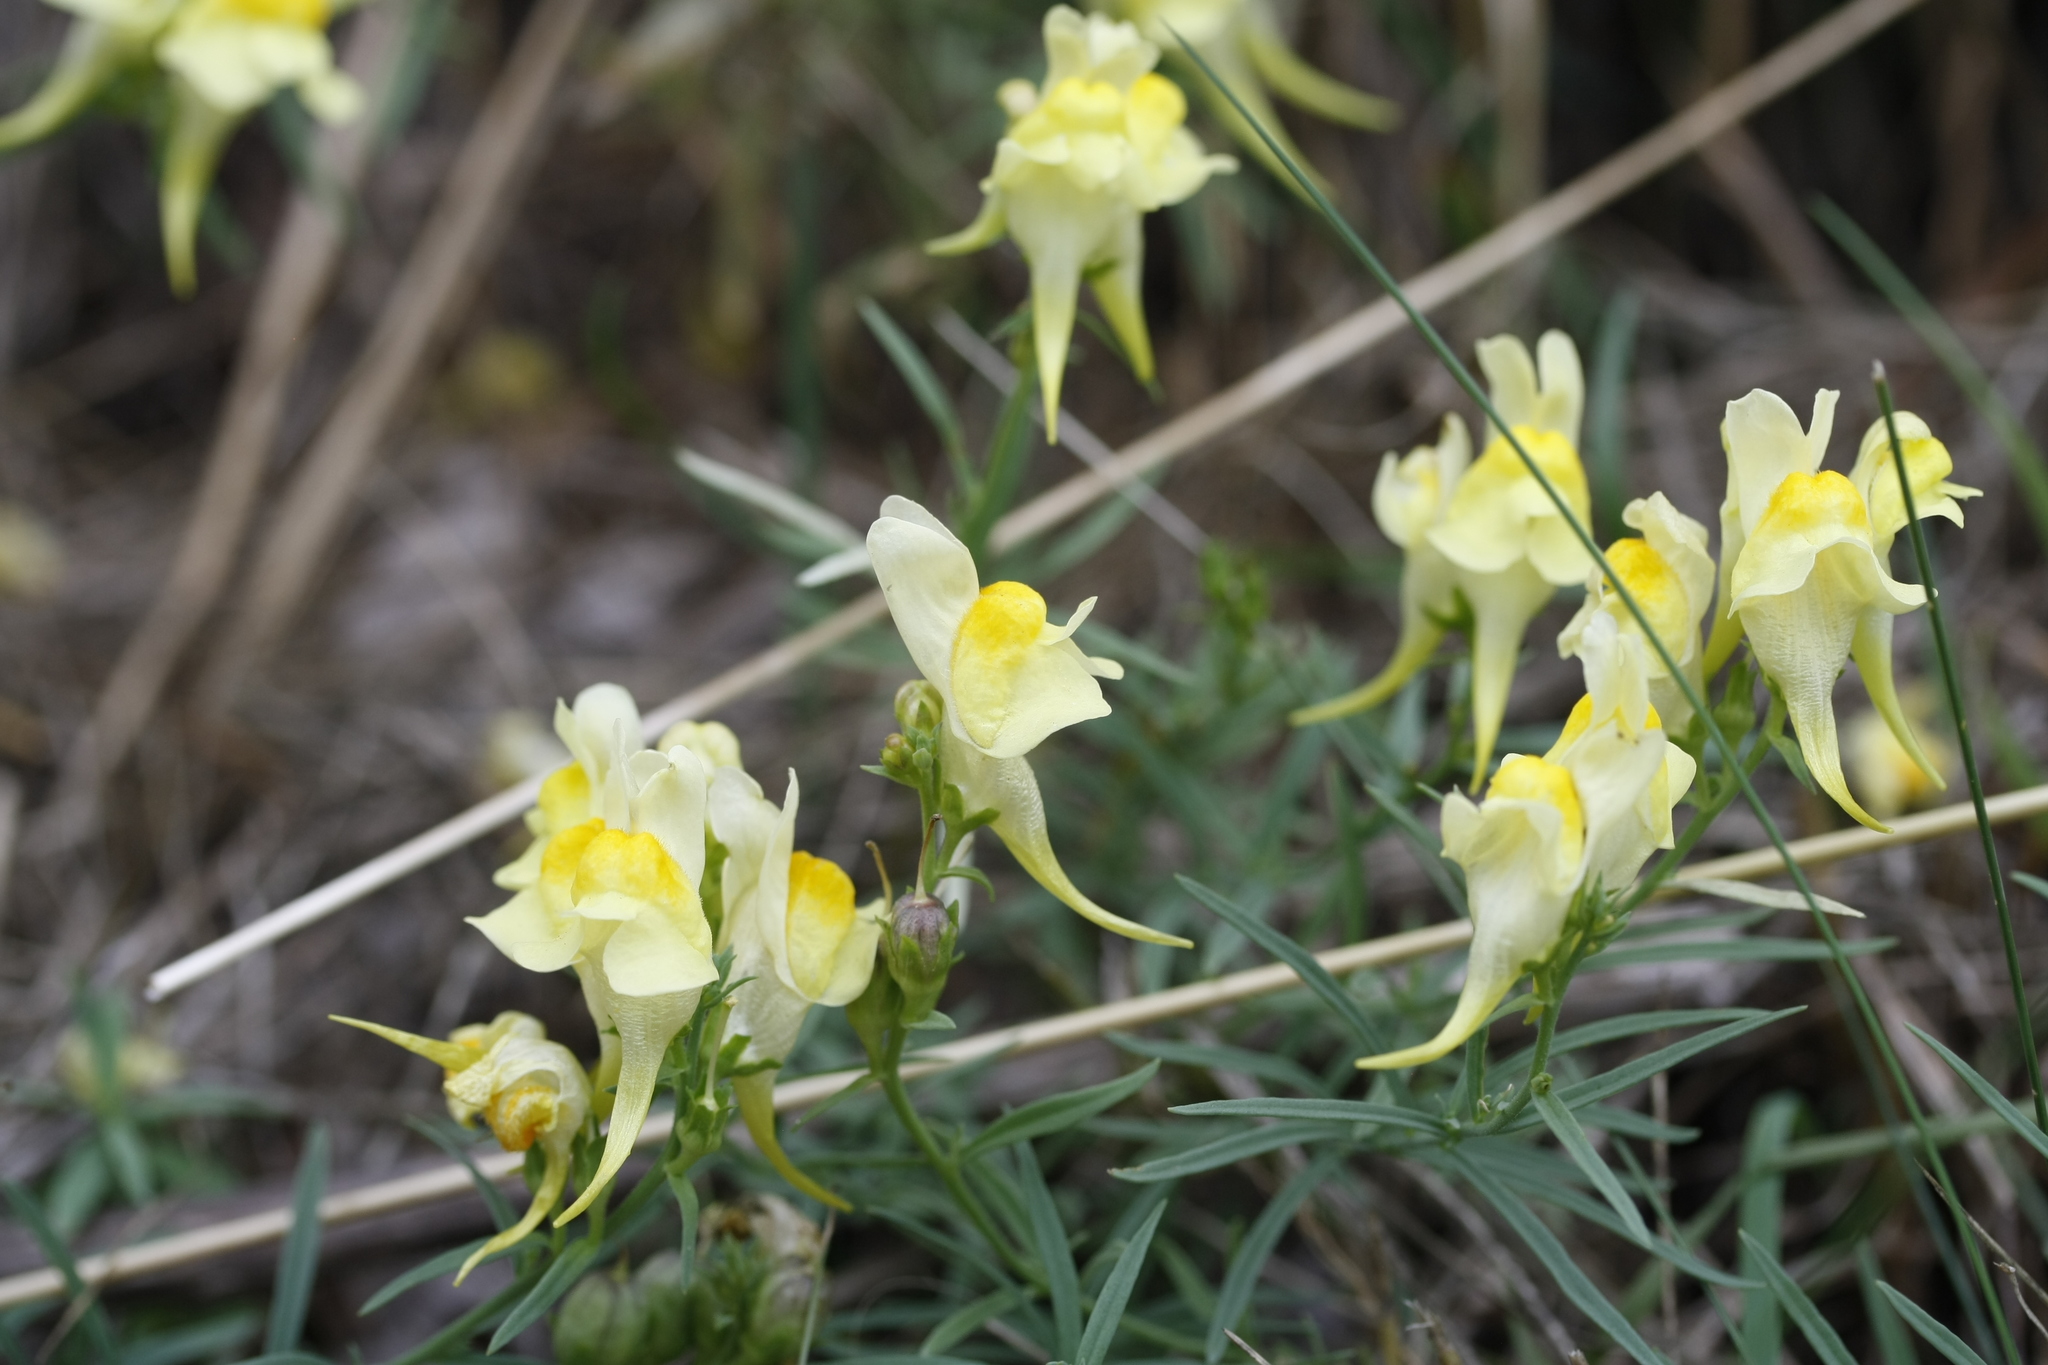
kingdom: Plantae
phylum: Tracheophyta
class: Magnoliopsida
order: Lamiales
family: Plantaginaceae
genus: Linaria
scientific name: Linaria vulgaris
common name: Butter and eggs
